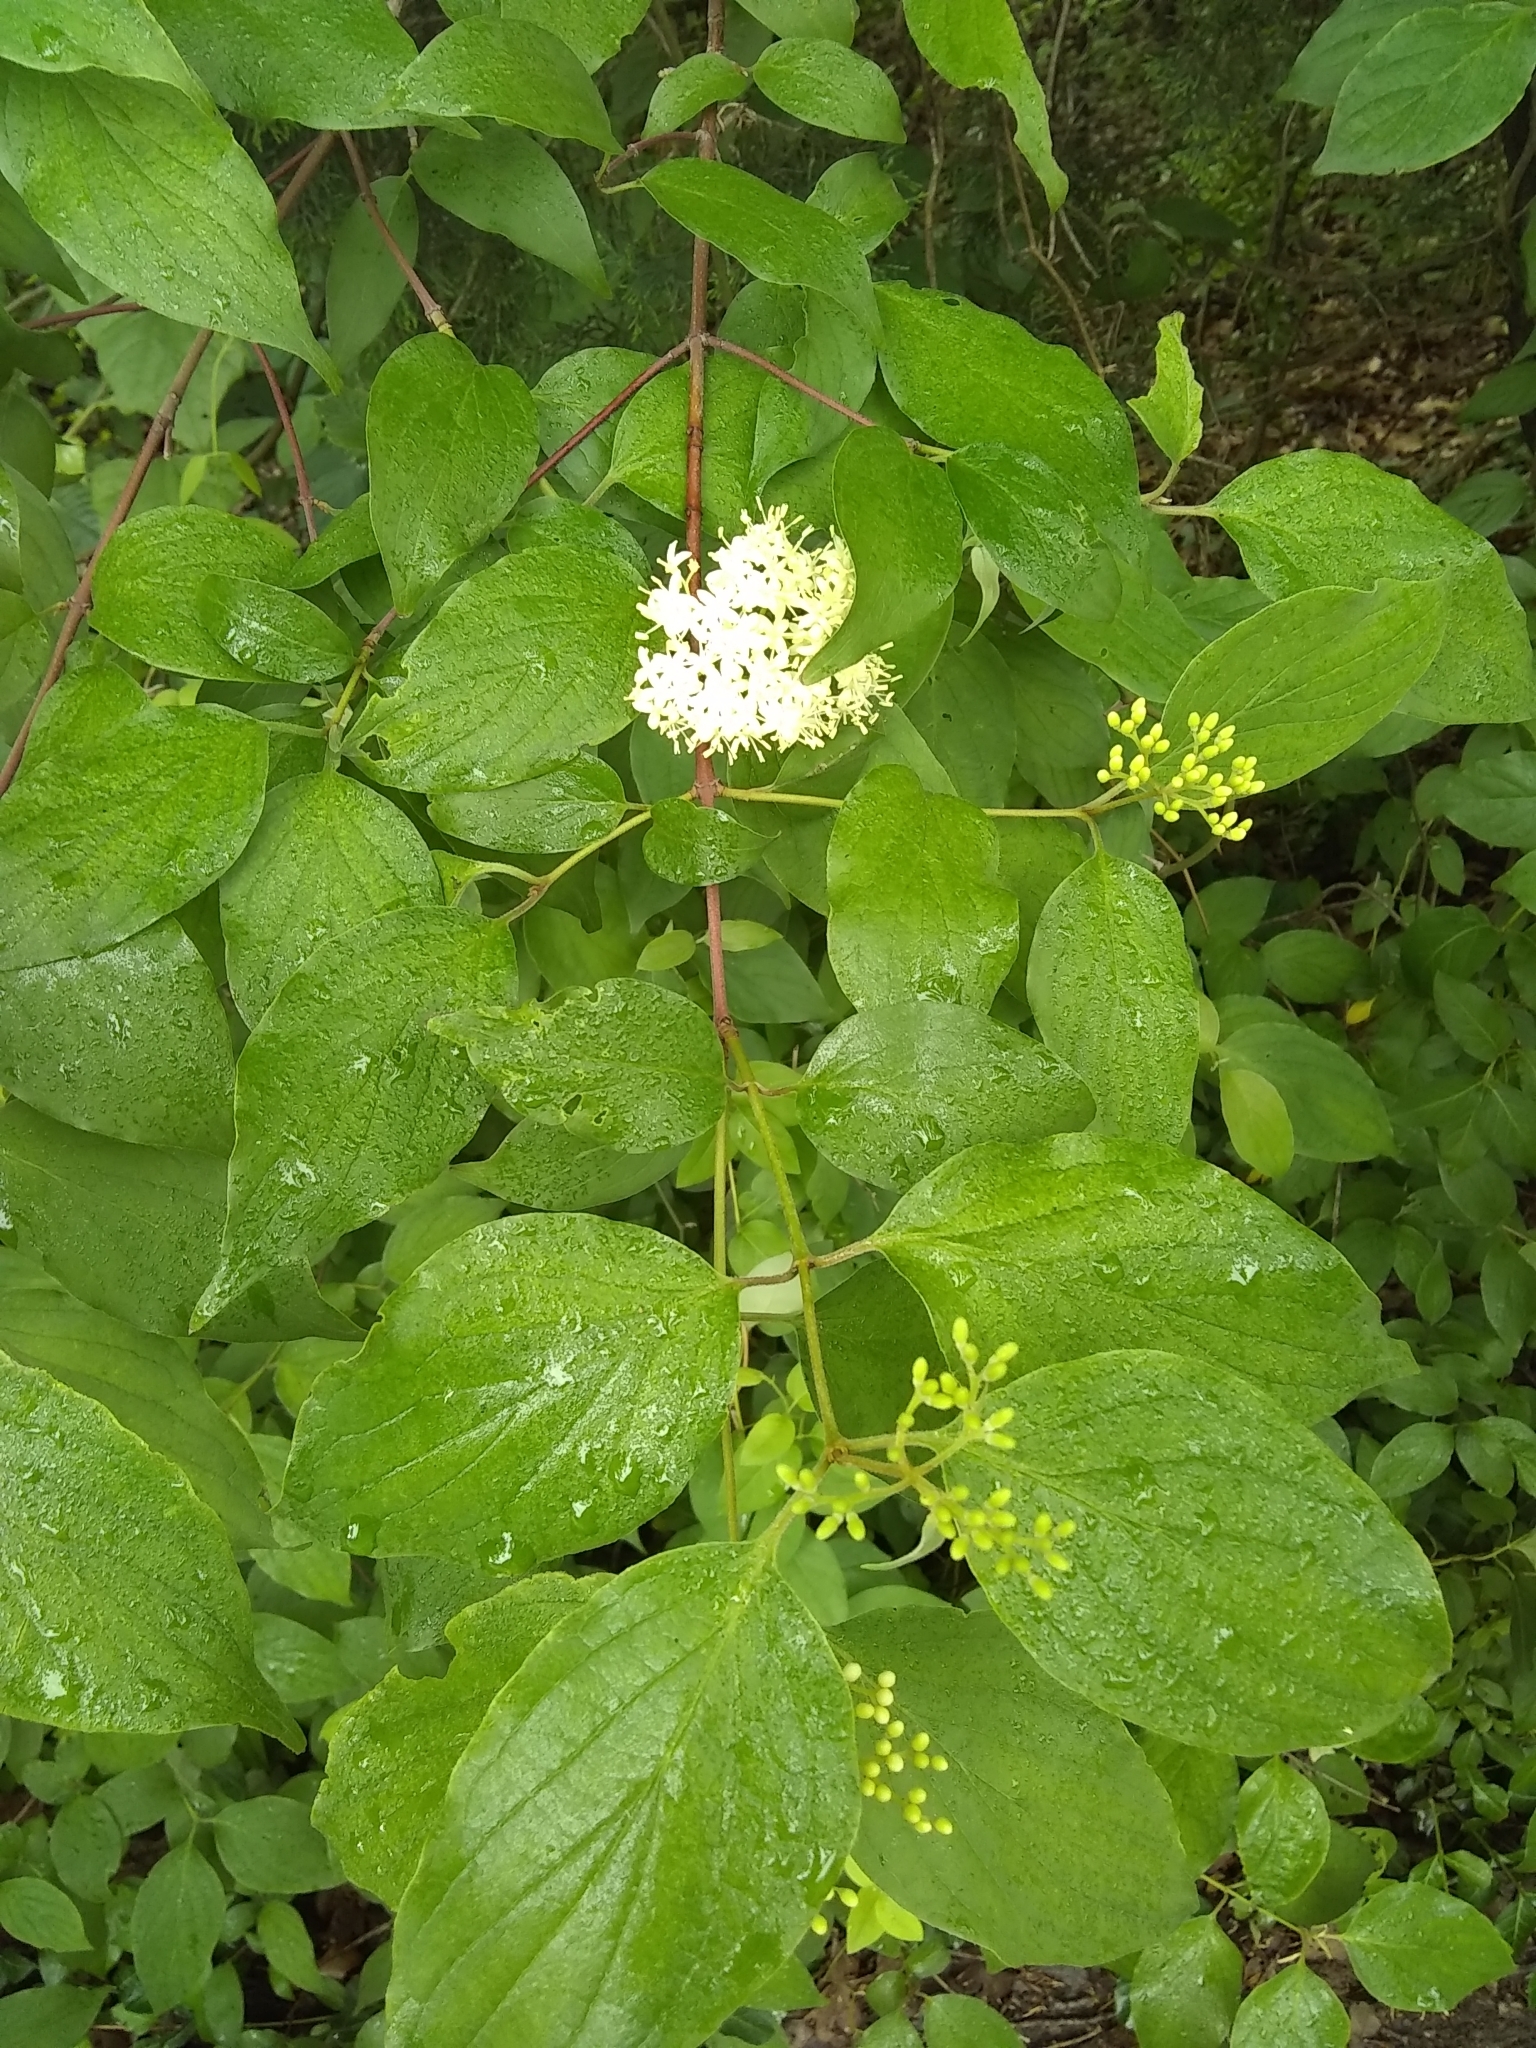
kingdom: Plantae
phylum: Tracheophyta
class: Magnoliopsida
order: Cornales
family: Cornaceae
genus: Cornus
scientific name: Cornus drummondii
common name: Rough-leaf dogwood
